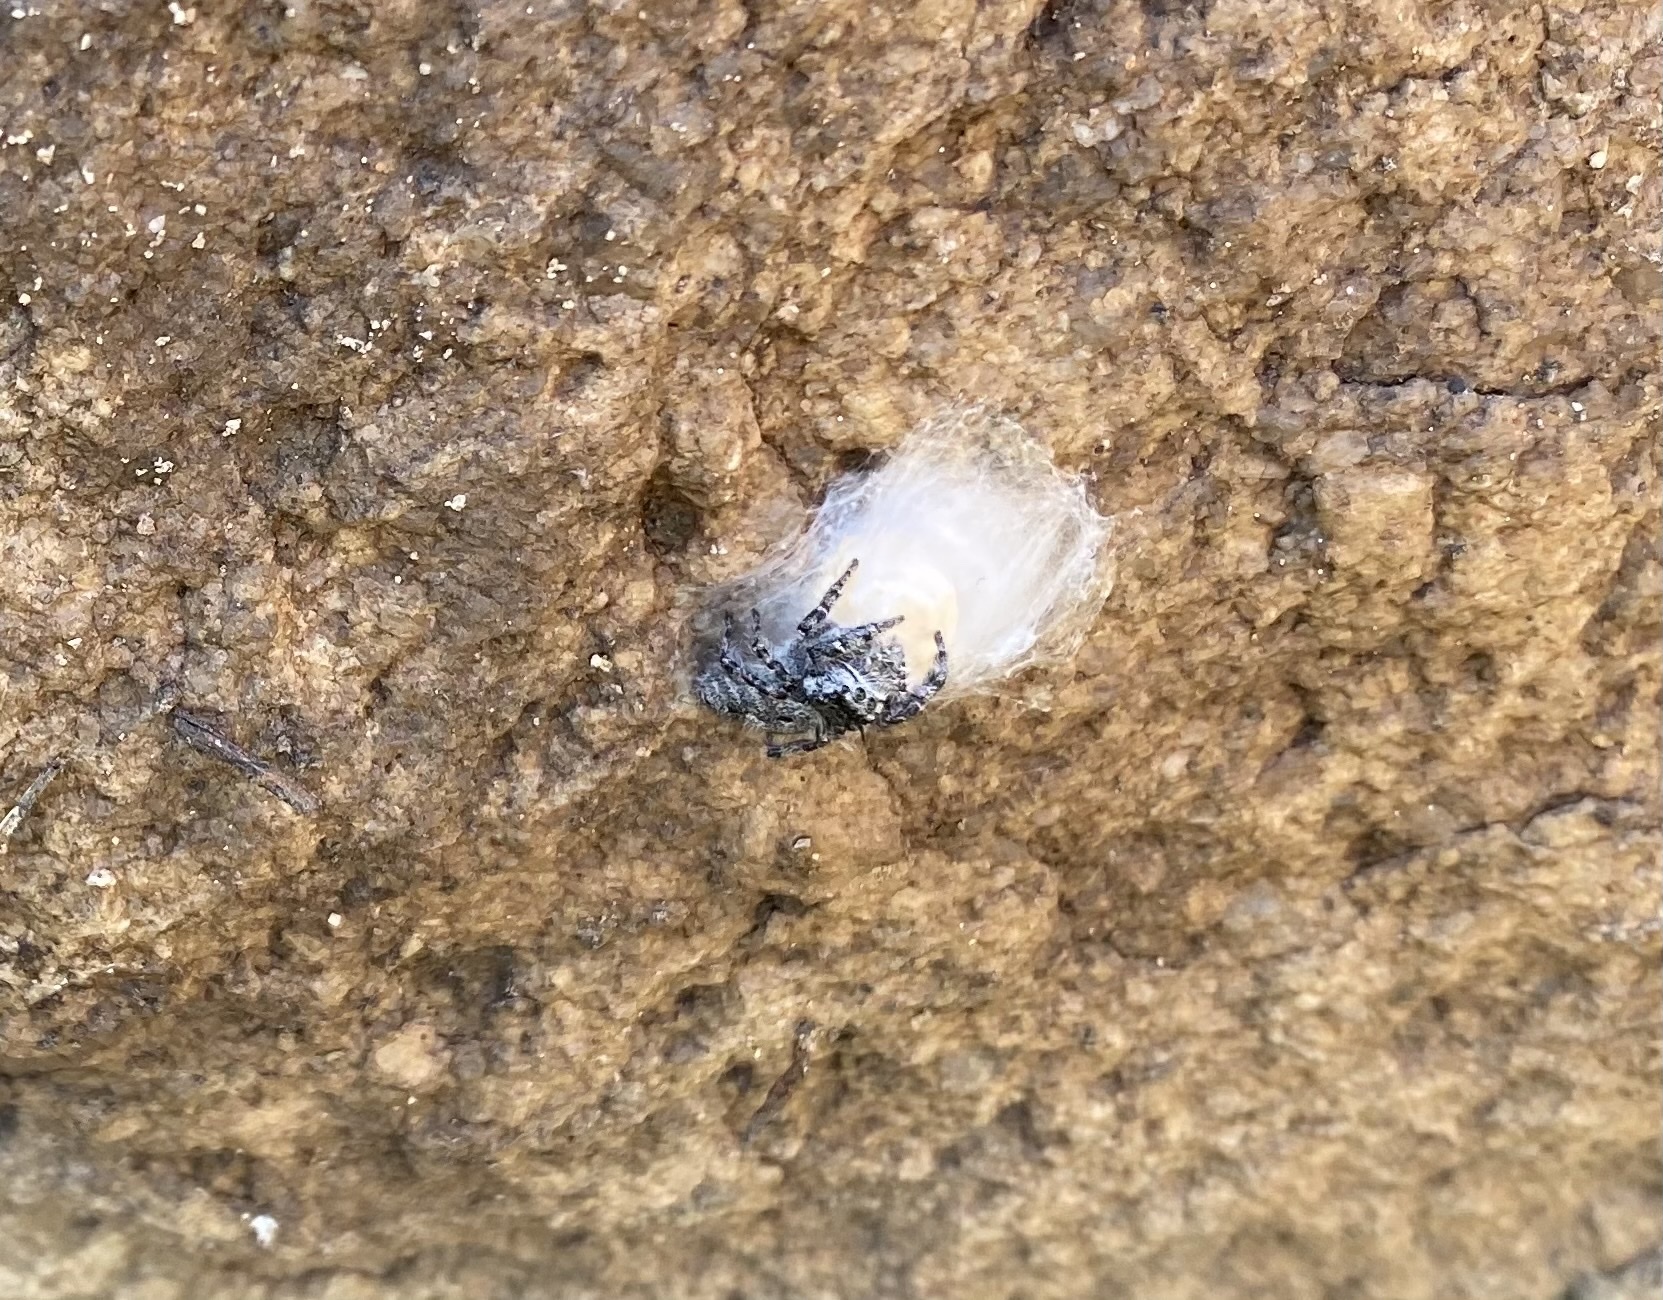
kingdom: Animalia
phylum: Arthropoda
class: Arachnida
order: Araneae
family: Salticidae
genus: Phidippus
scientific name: Phidippus asotus
